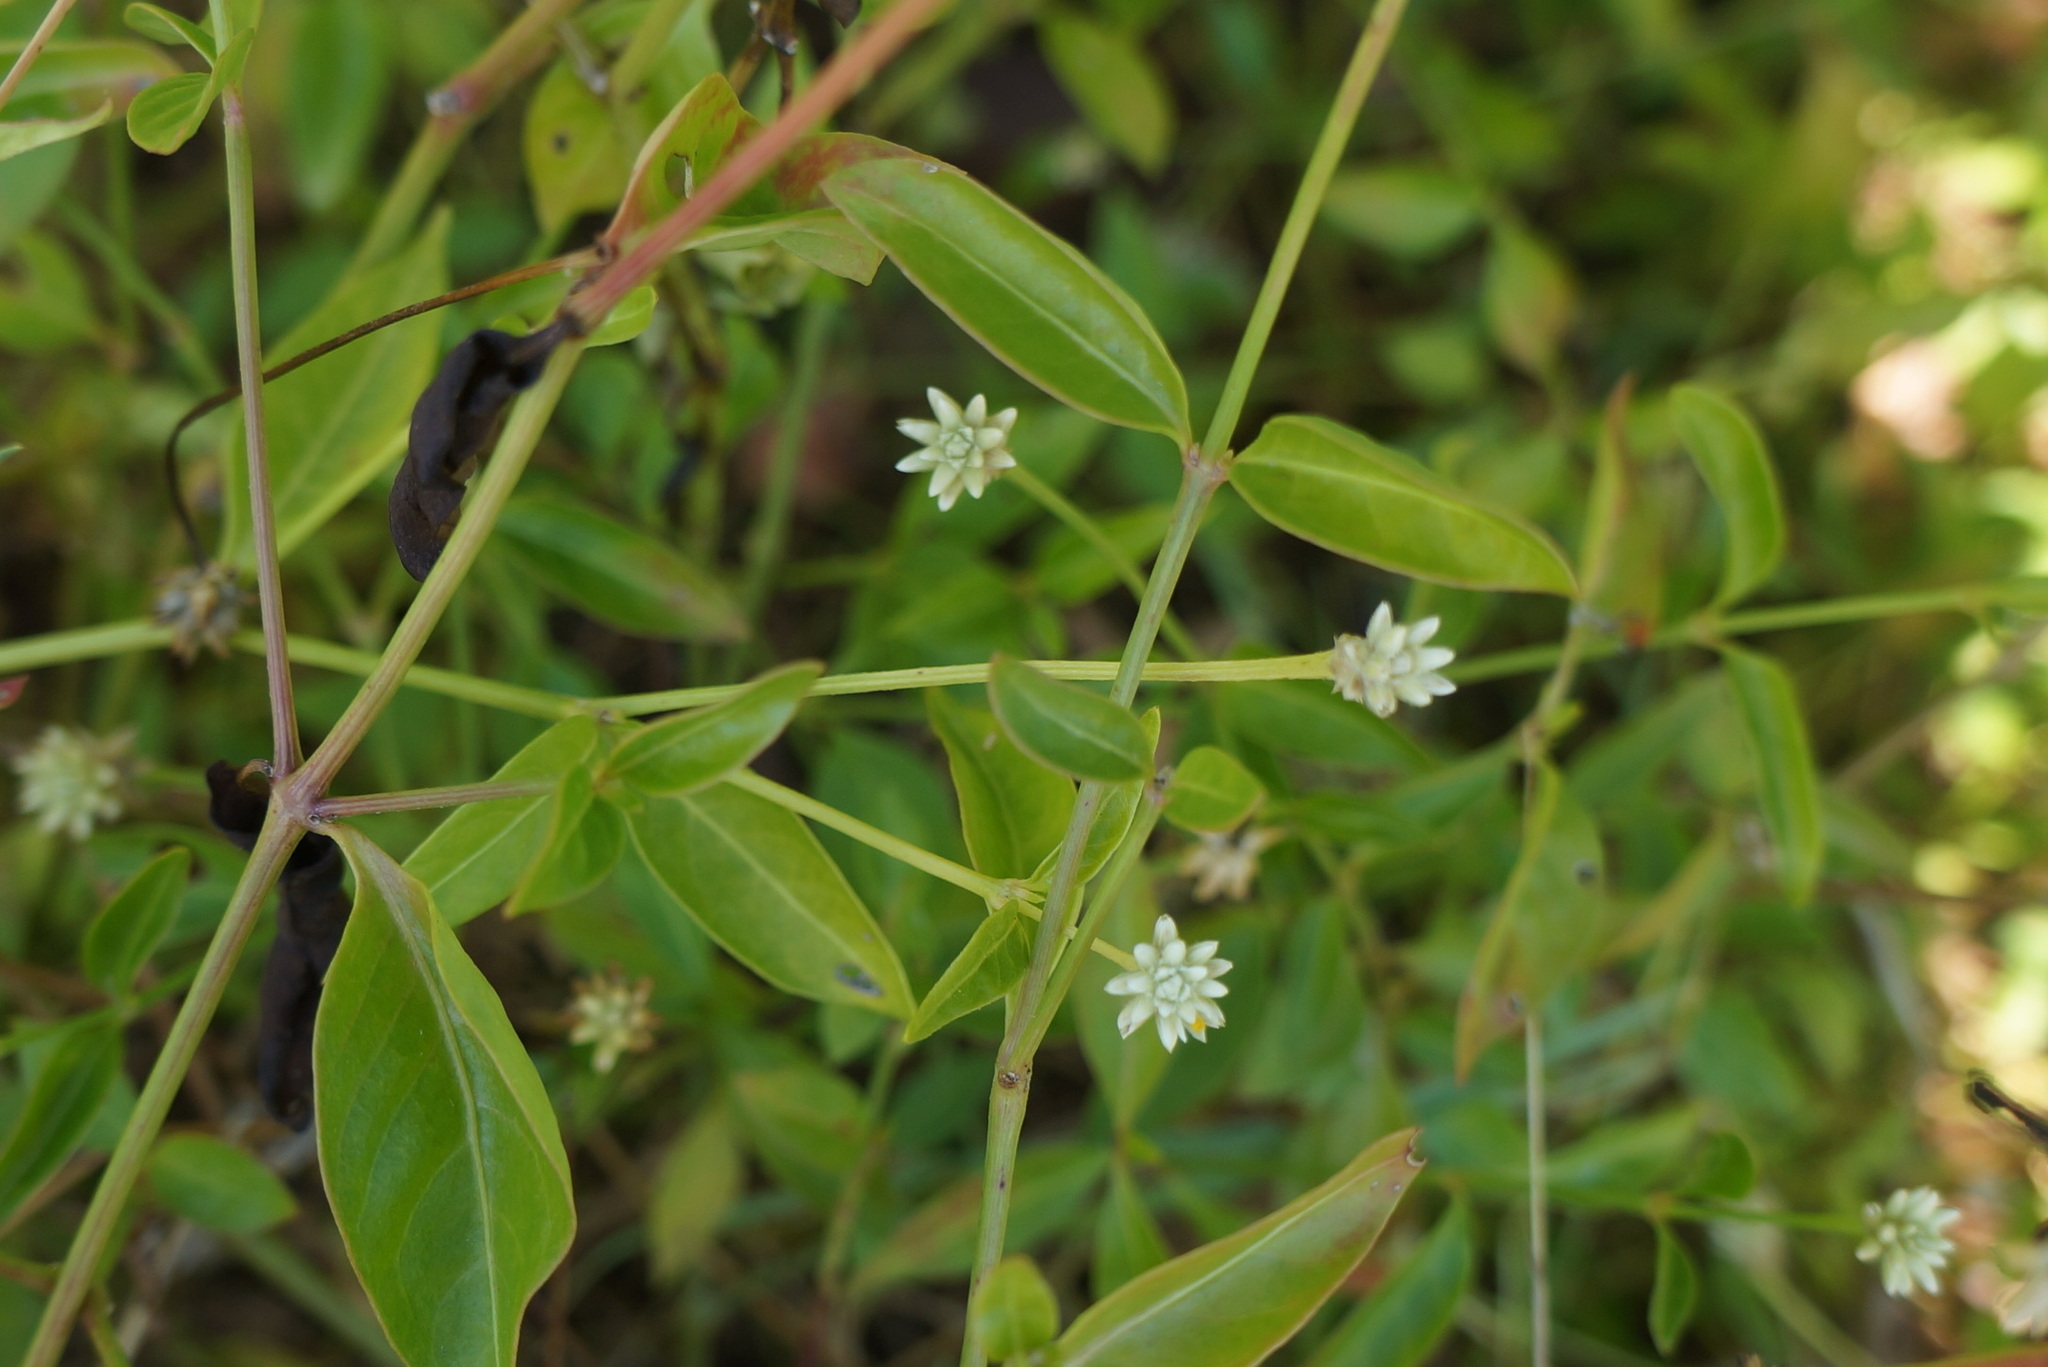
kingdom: Plantae
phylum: Tracheophyta
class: Magnoliopsida
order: Caryophyllales
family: Amaranthaceae
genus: Alternanthera
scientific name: Alternanthera flavescens
